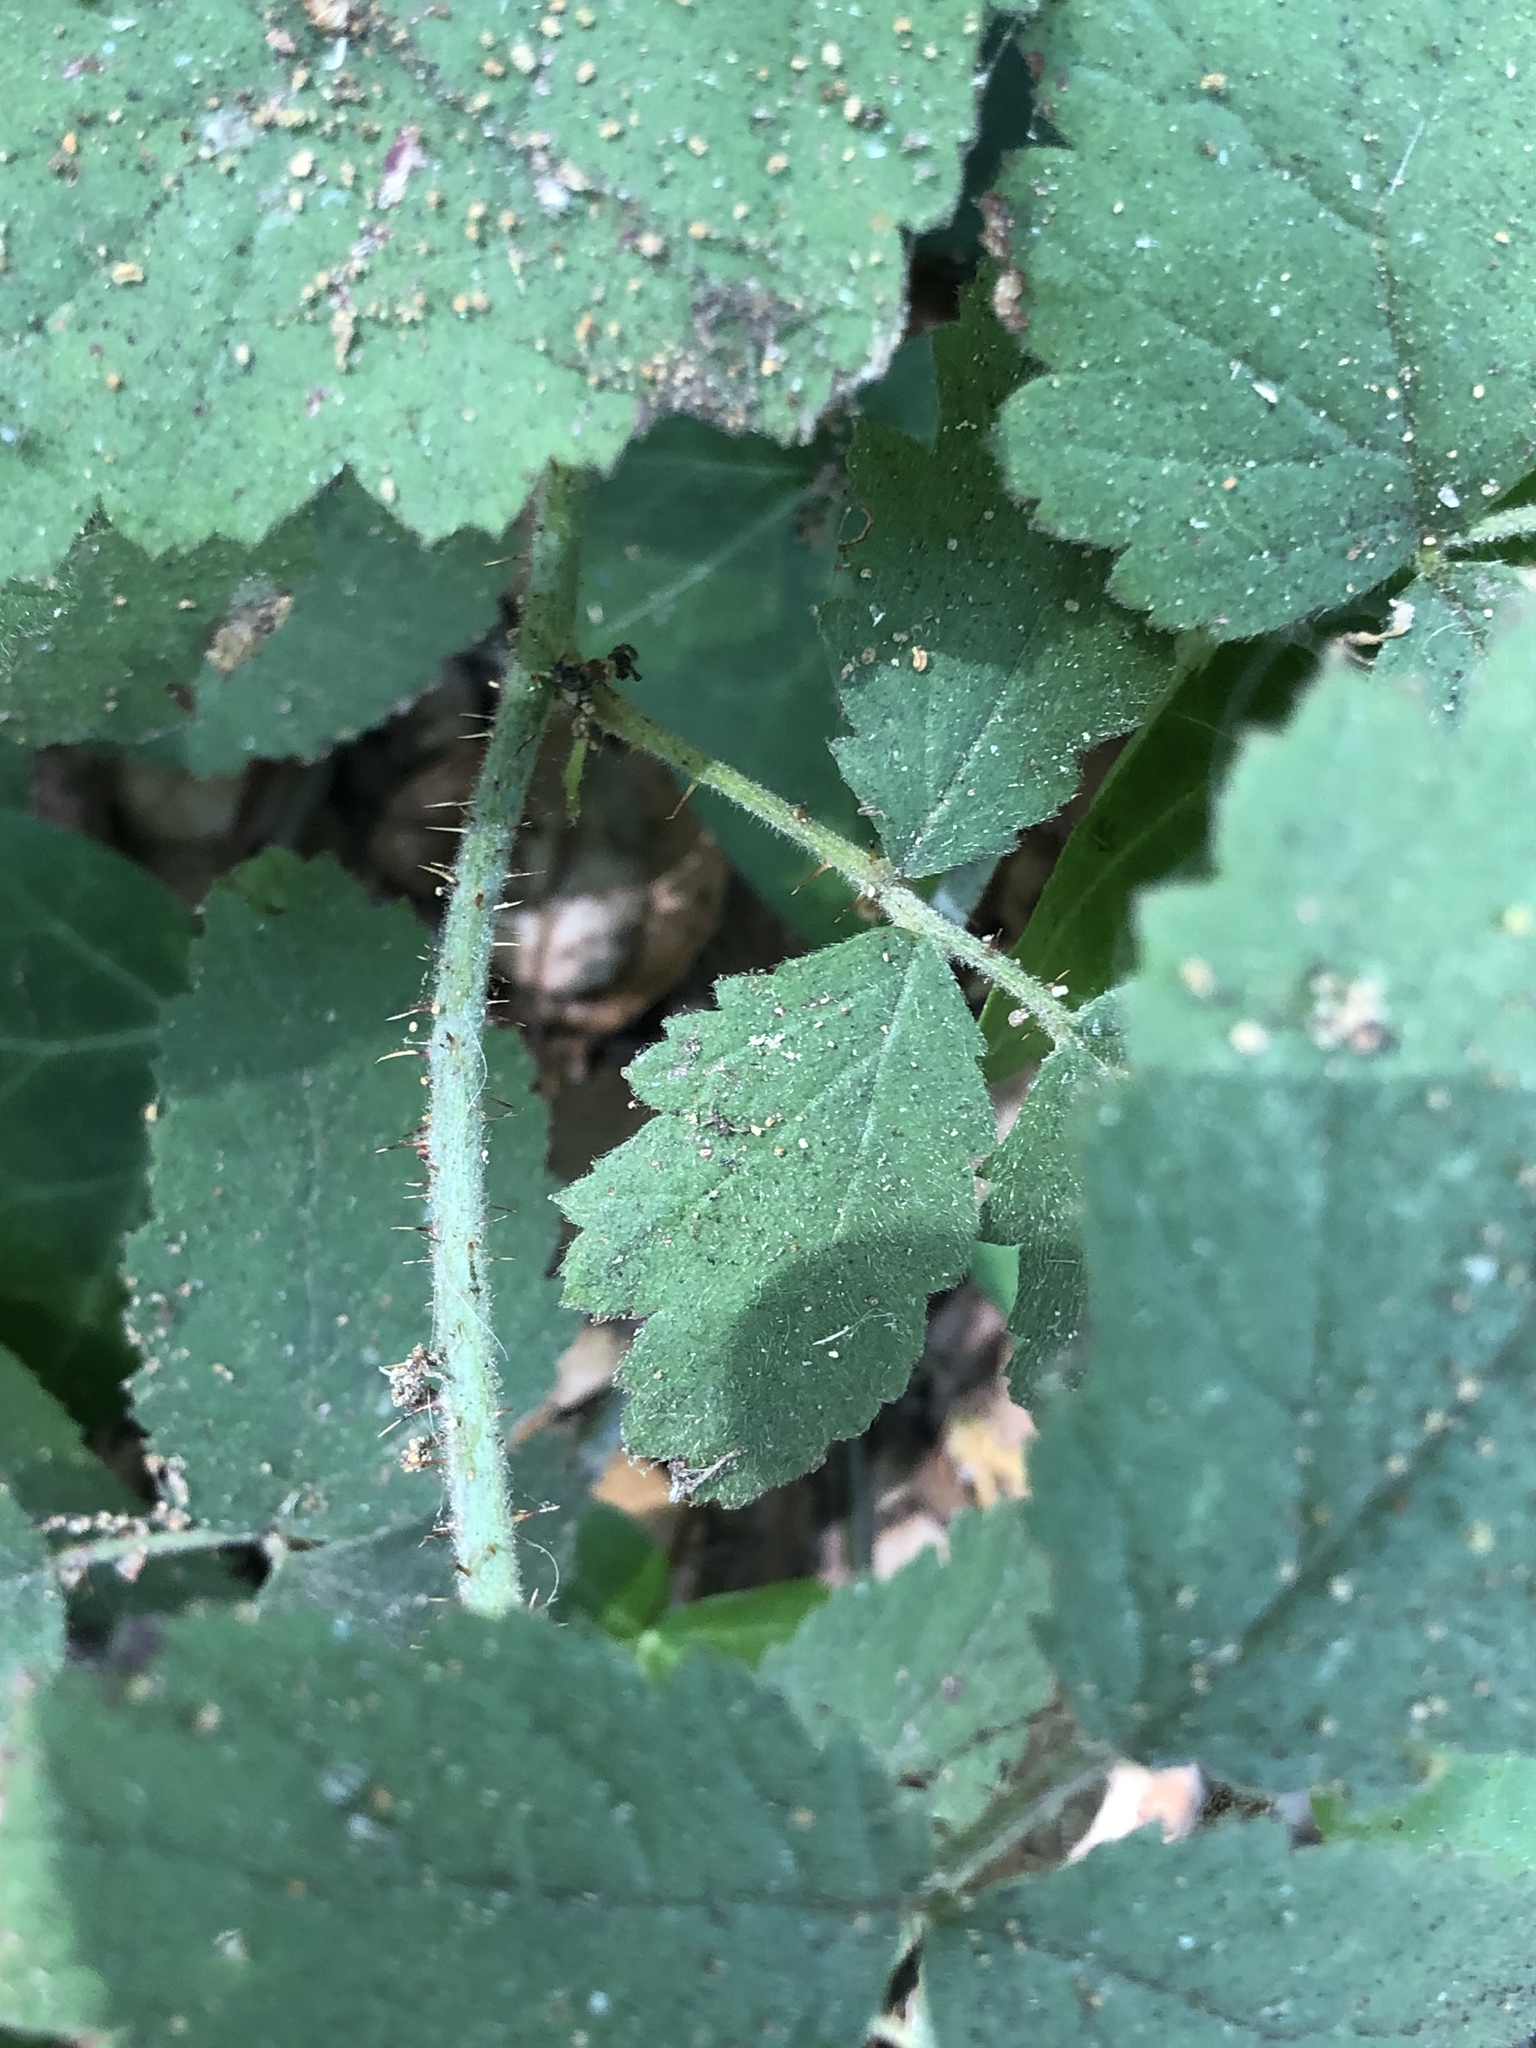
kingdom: Plantae
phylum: Tracheophyta
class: Magnoliopsida
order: Rosales
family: Rosaceae
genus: Rubus
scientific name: Rubus ursinus
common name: Pacific blackberry
